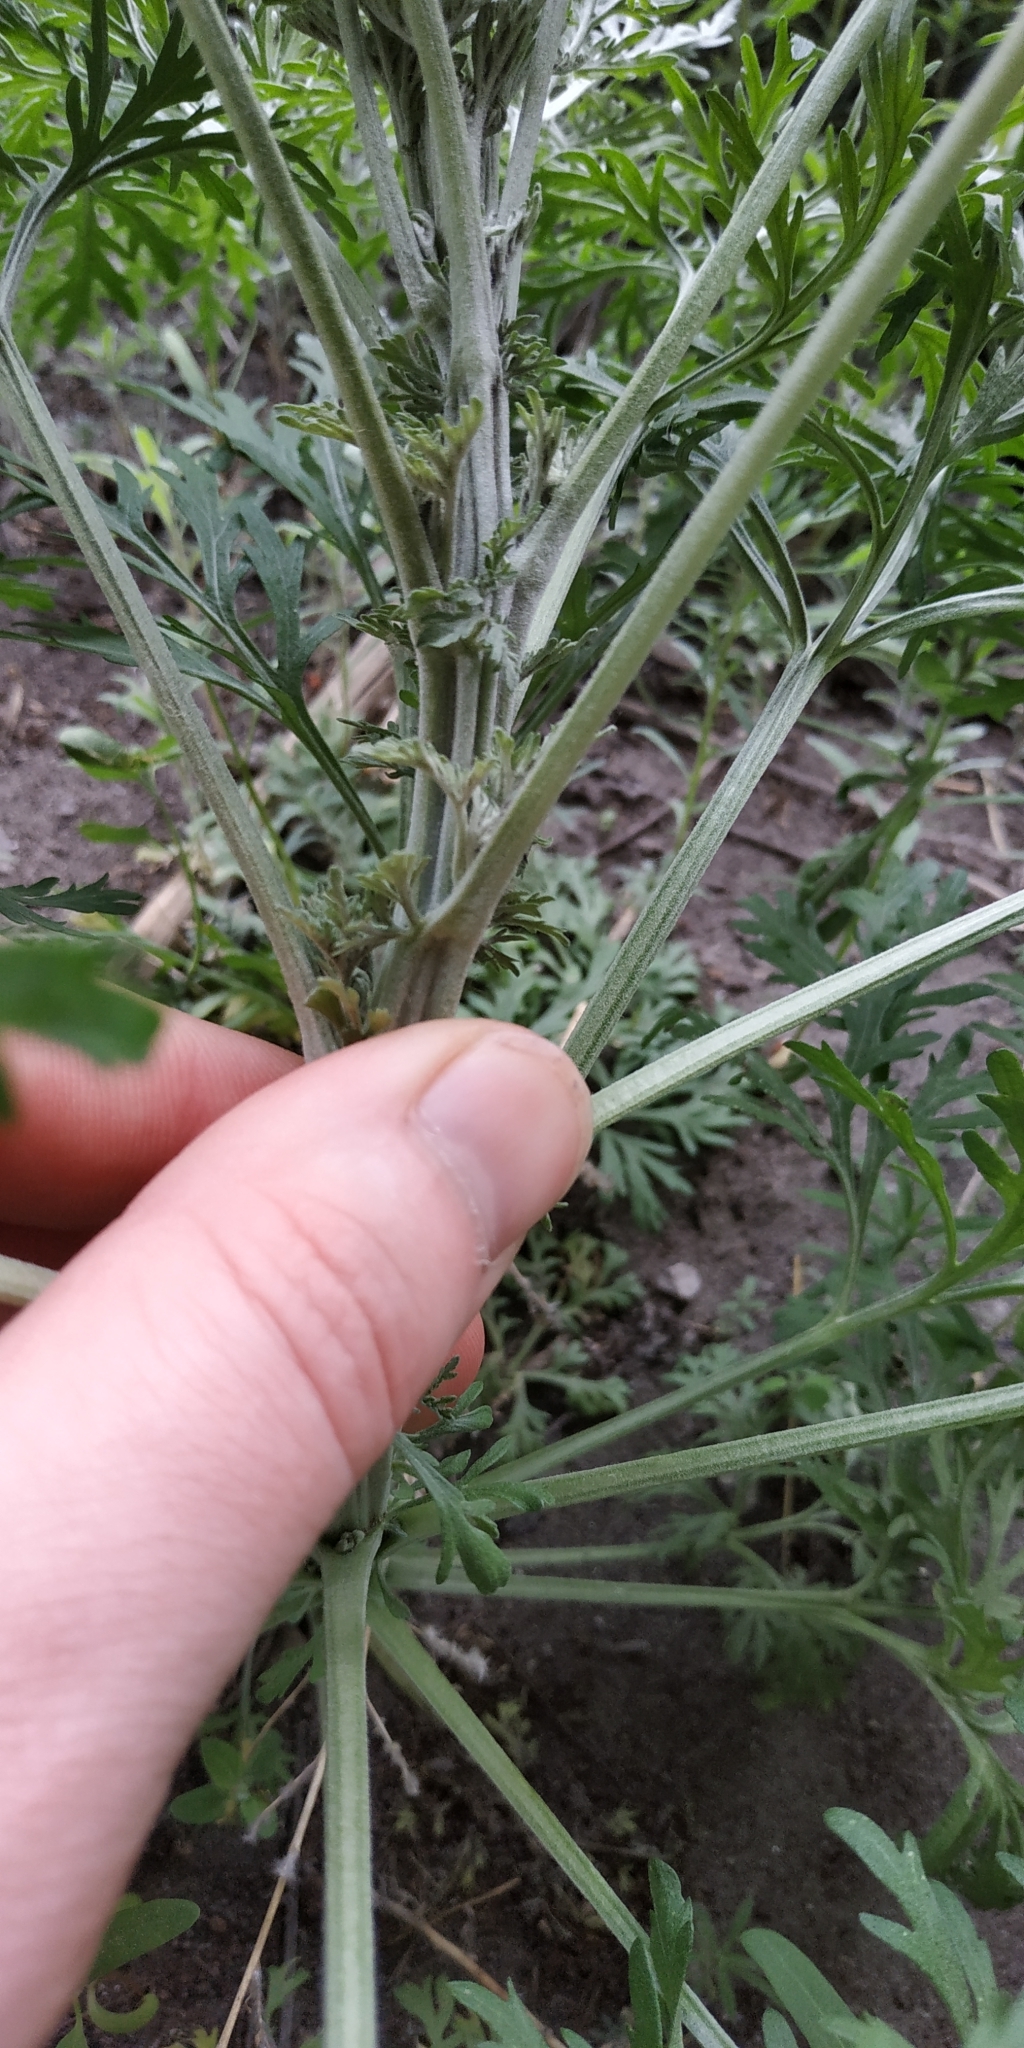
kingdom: Plantae
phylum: Tracheophyta
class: Magnoliopsida
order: Asterales
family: Asteraceae
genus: Artemisia
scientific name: Artemisia sieversiana
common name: Sieversian wormwood
